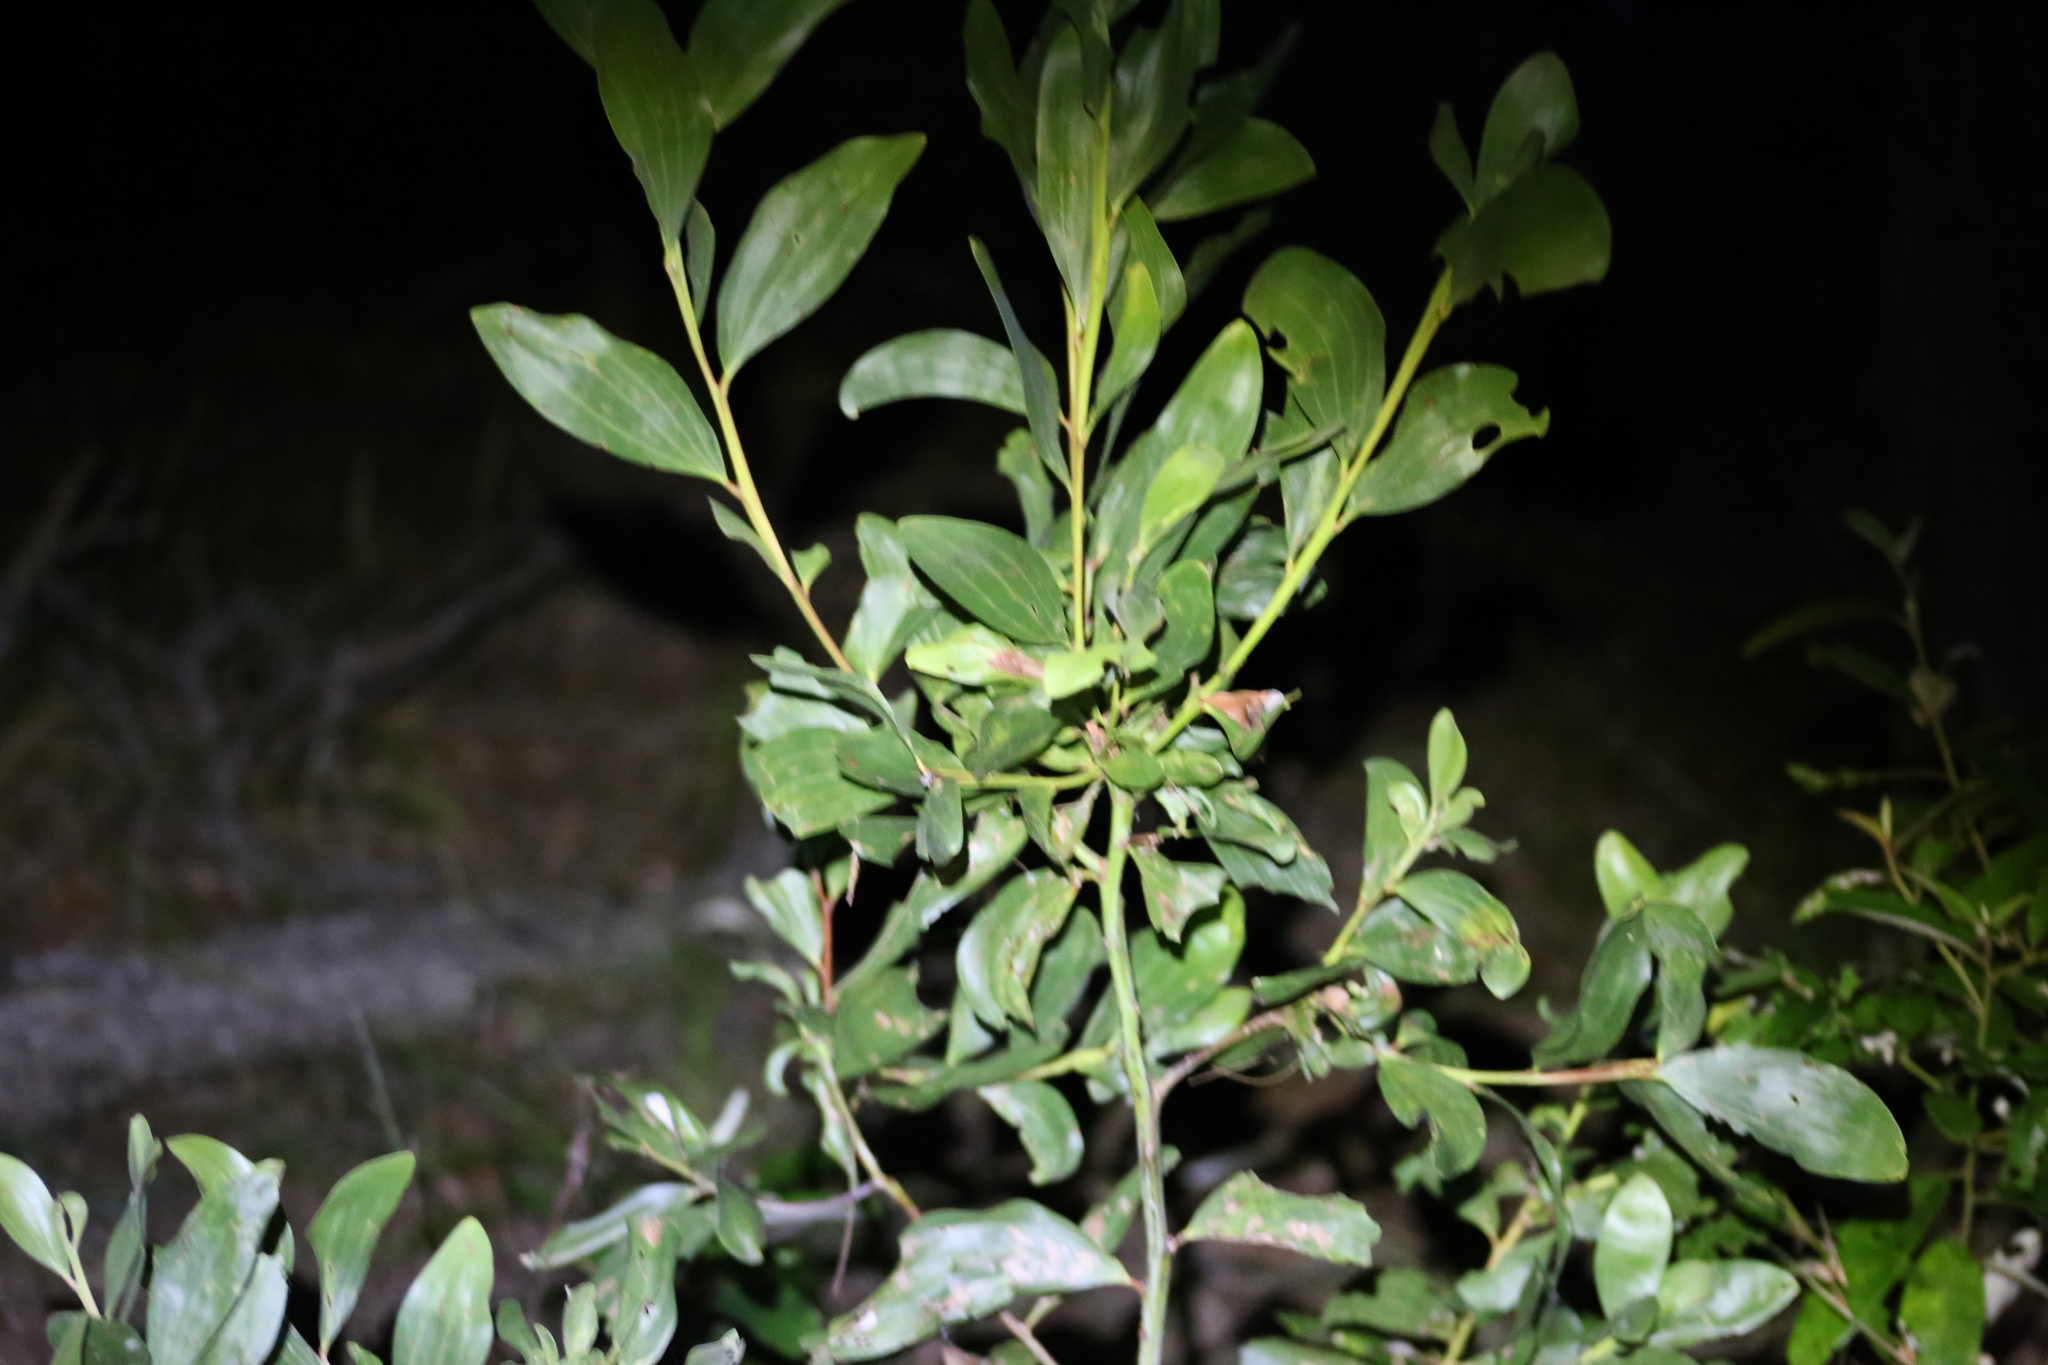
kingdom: Plantae
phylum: Tracheophyta
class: Magnoliopsida
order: Fabales
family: Fabaceae
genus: Acacia
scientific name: Acacia concurrens
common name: Black wattle
